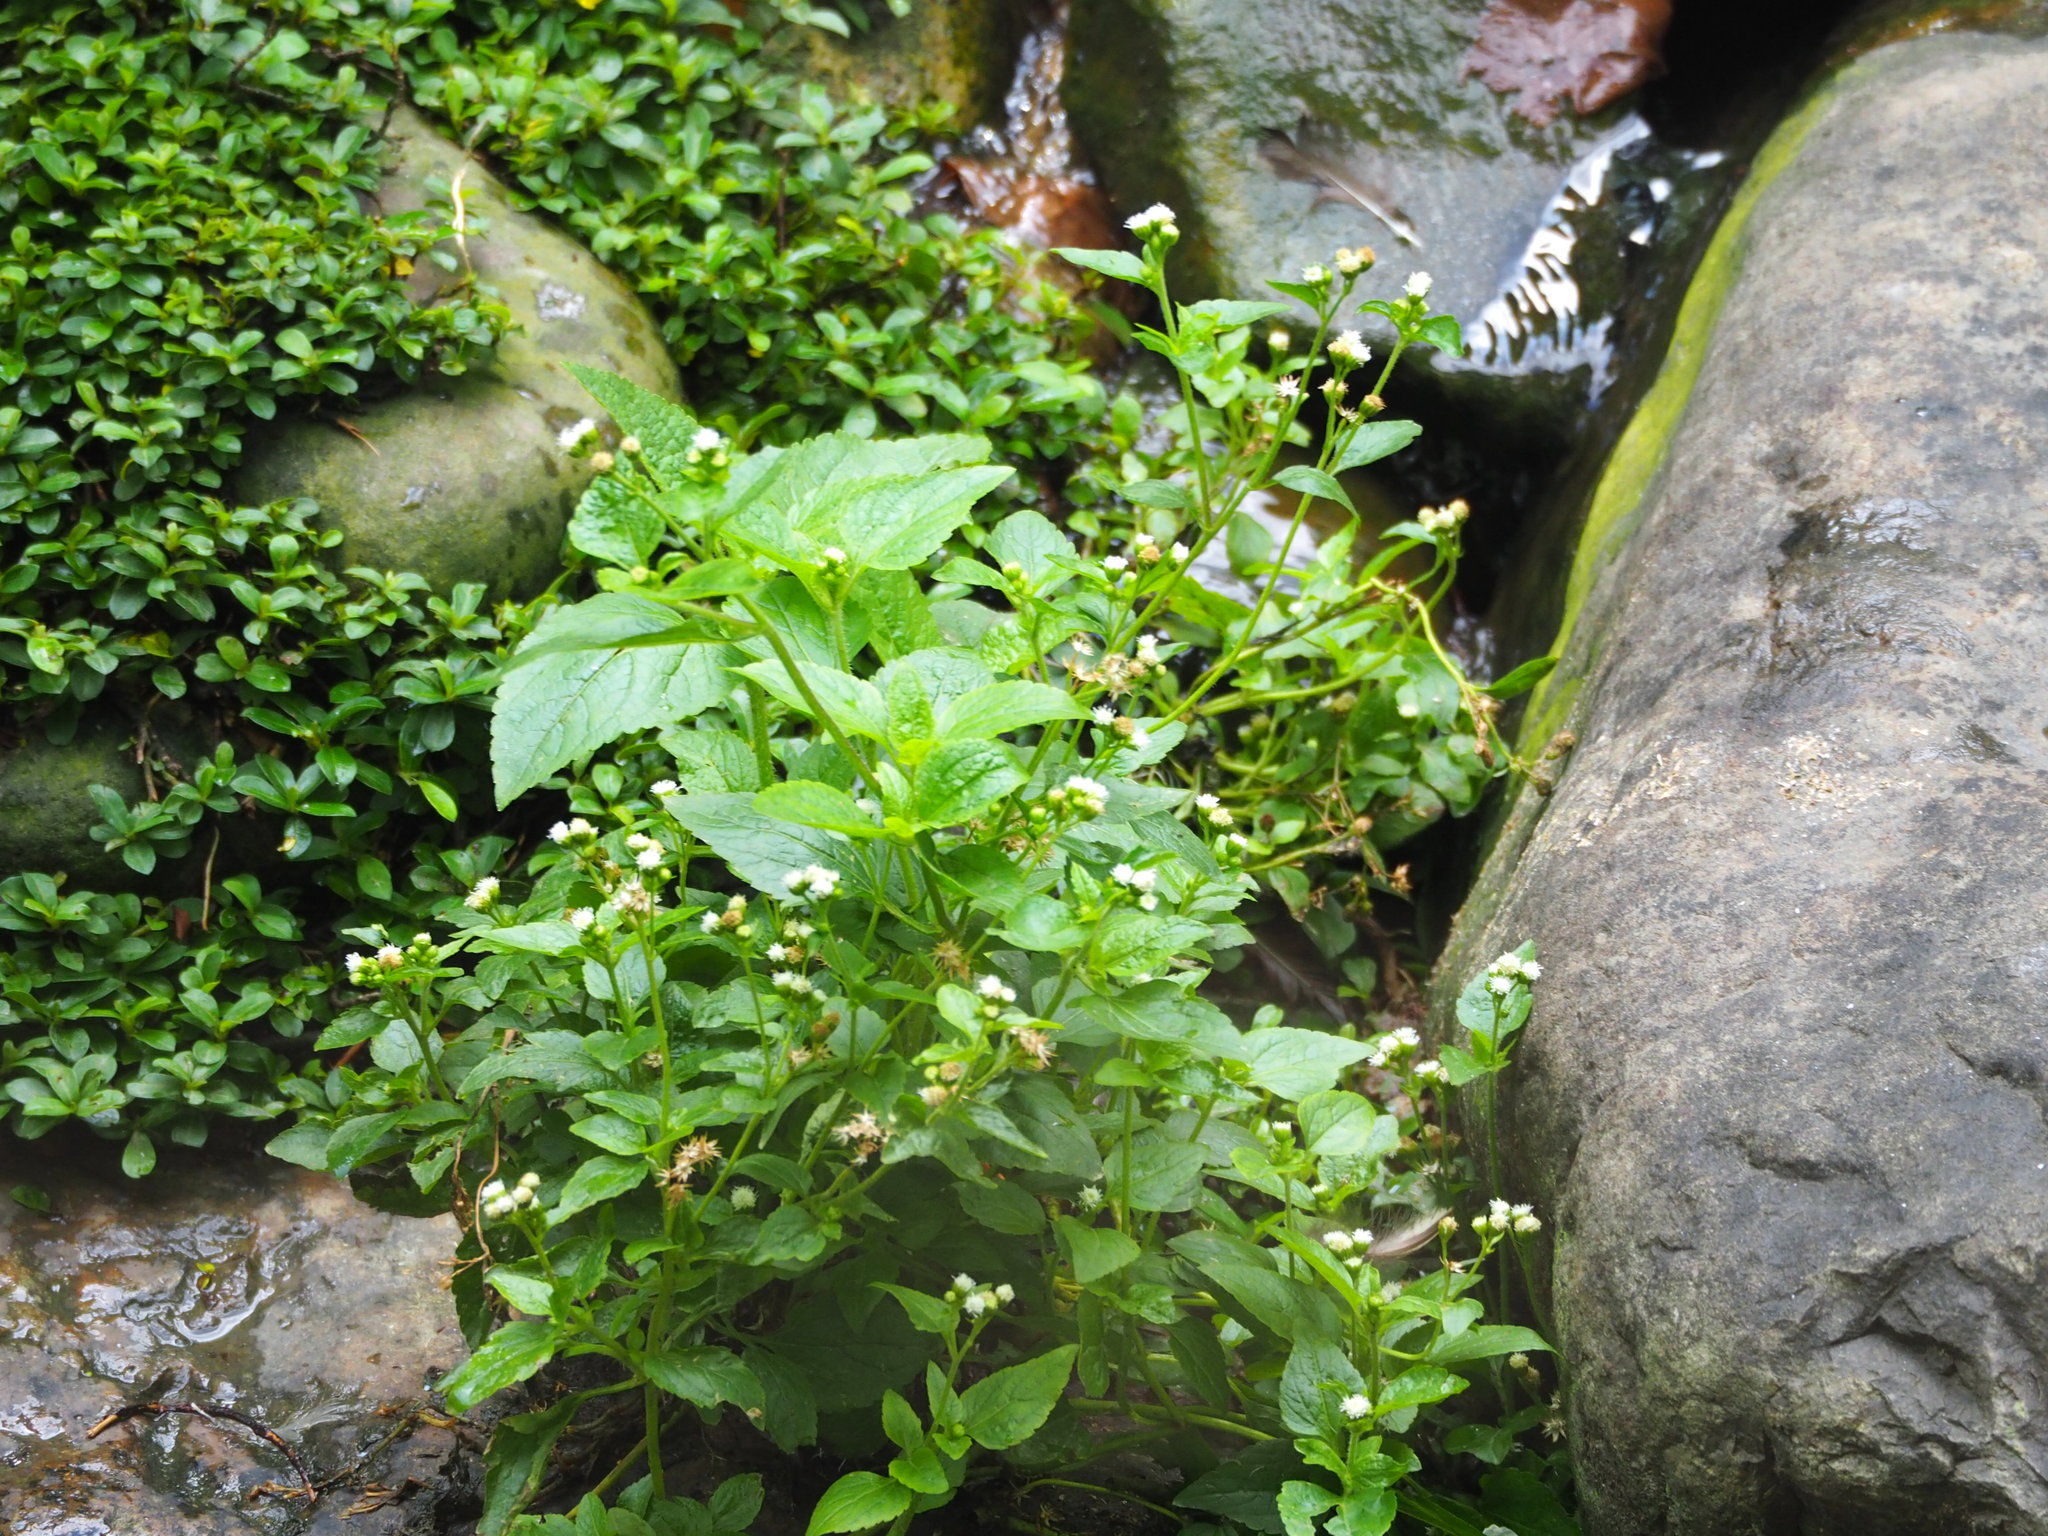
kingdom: Plantae
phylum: Tracheophyta
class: Magnoliopsida
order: Asterales
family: Asteraceae
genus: Ageratum
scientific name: Ageratum conyzoides
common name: Tropical whiteweed
